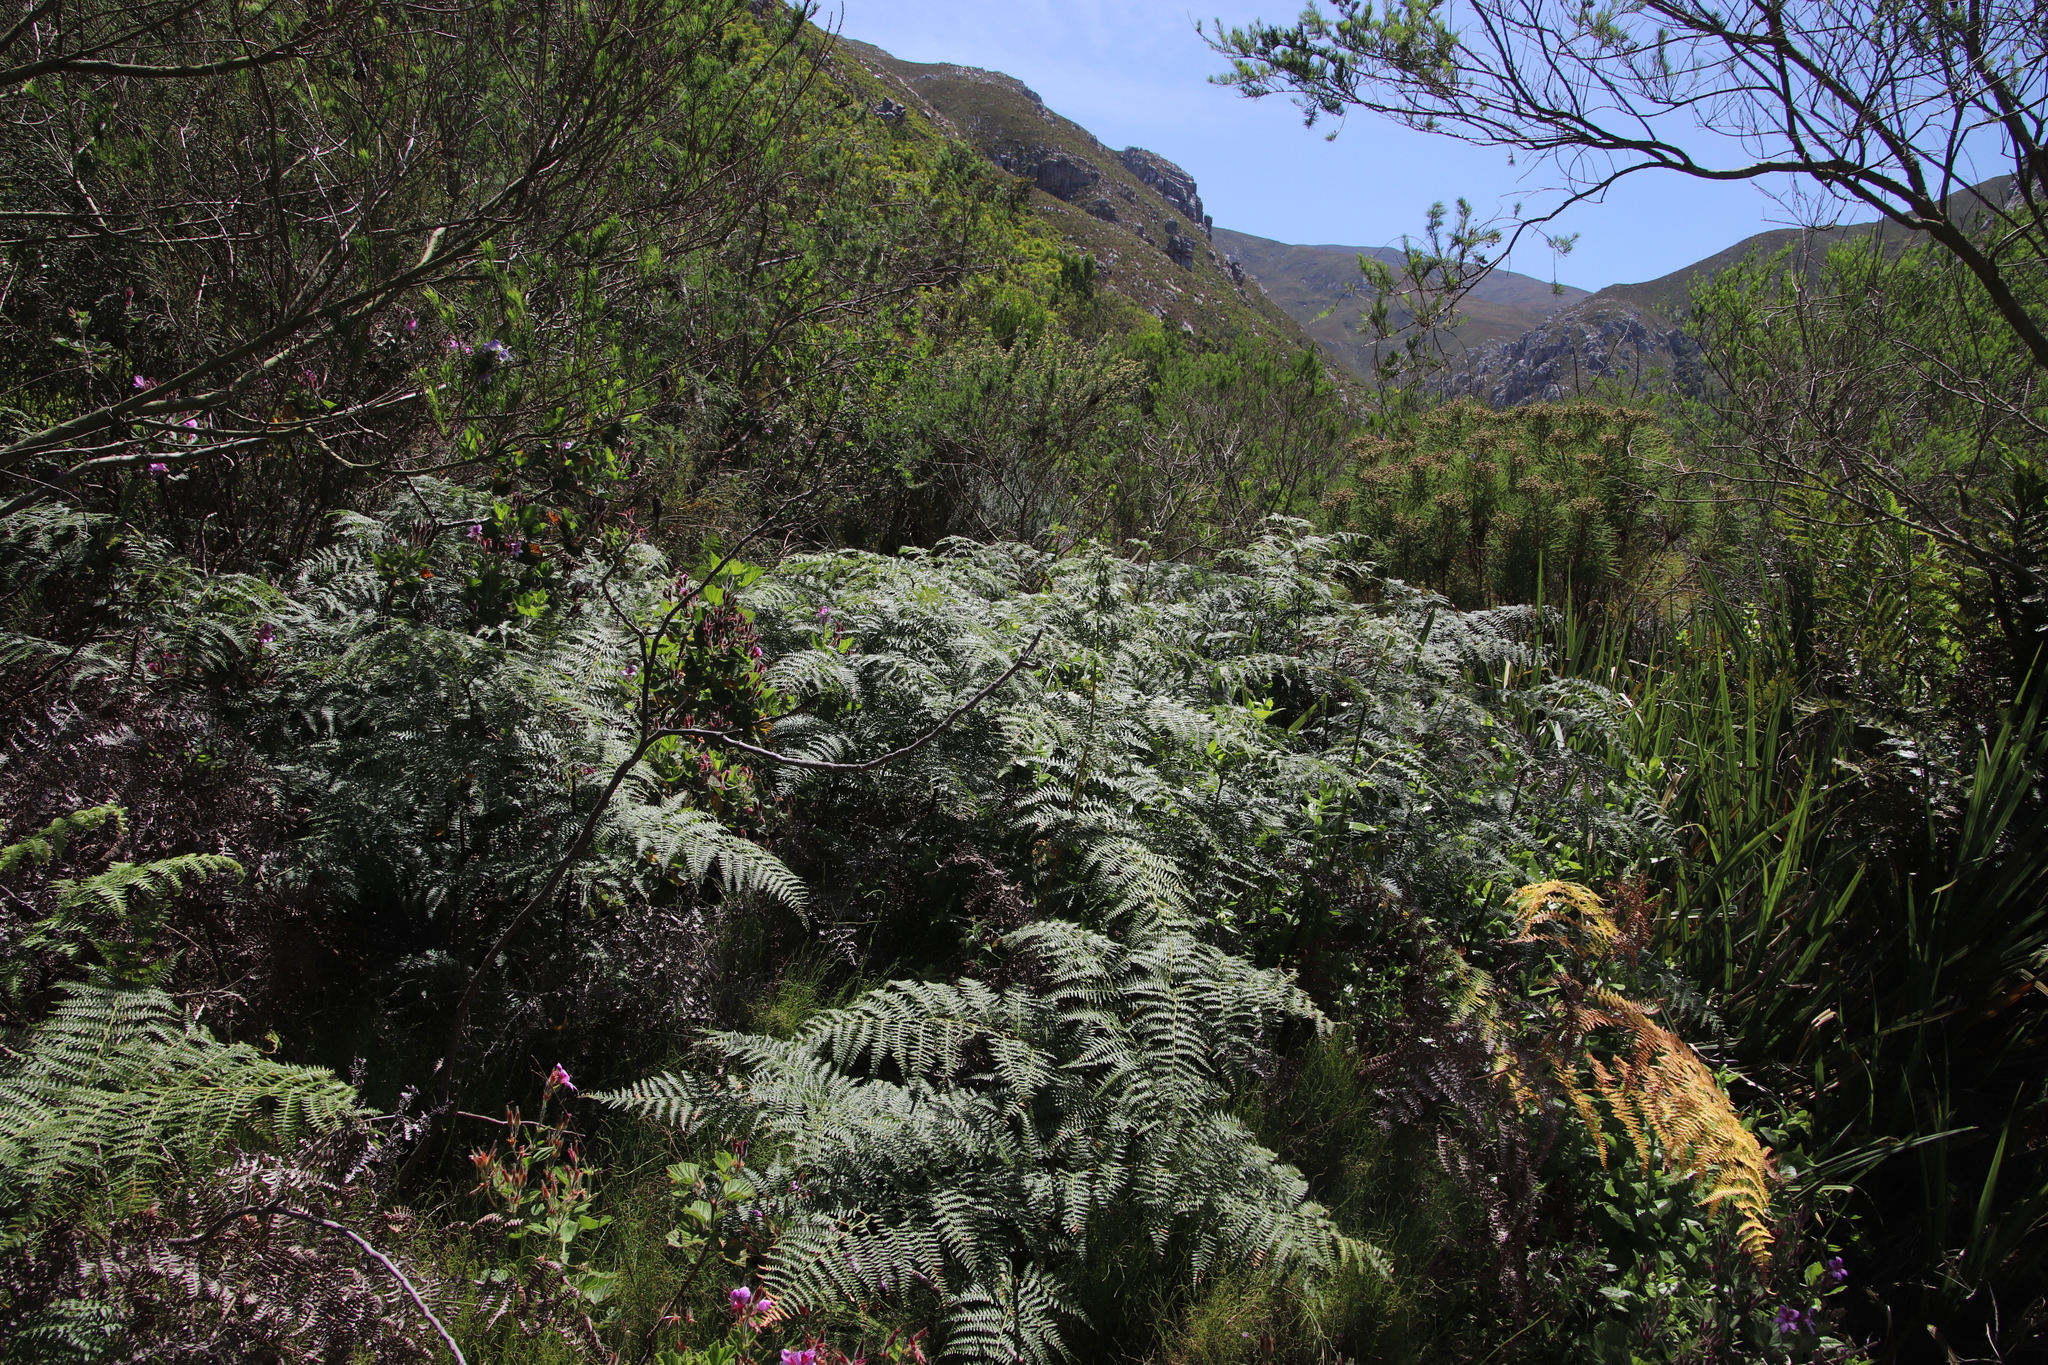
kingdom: Plantae
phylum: Tracheophyta
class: Polypodiopsida
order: Polypodiales
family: Dennstaedtiaceae
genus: Pteridium
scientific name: Pteridium aquilinum
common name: Bracken
